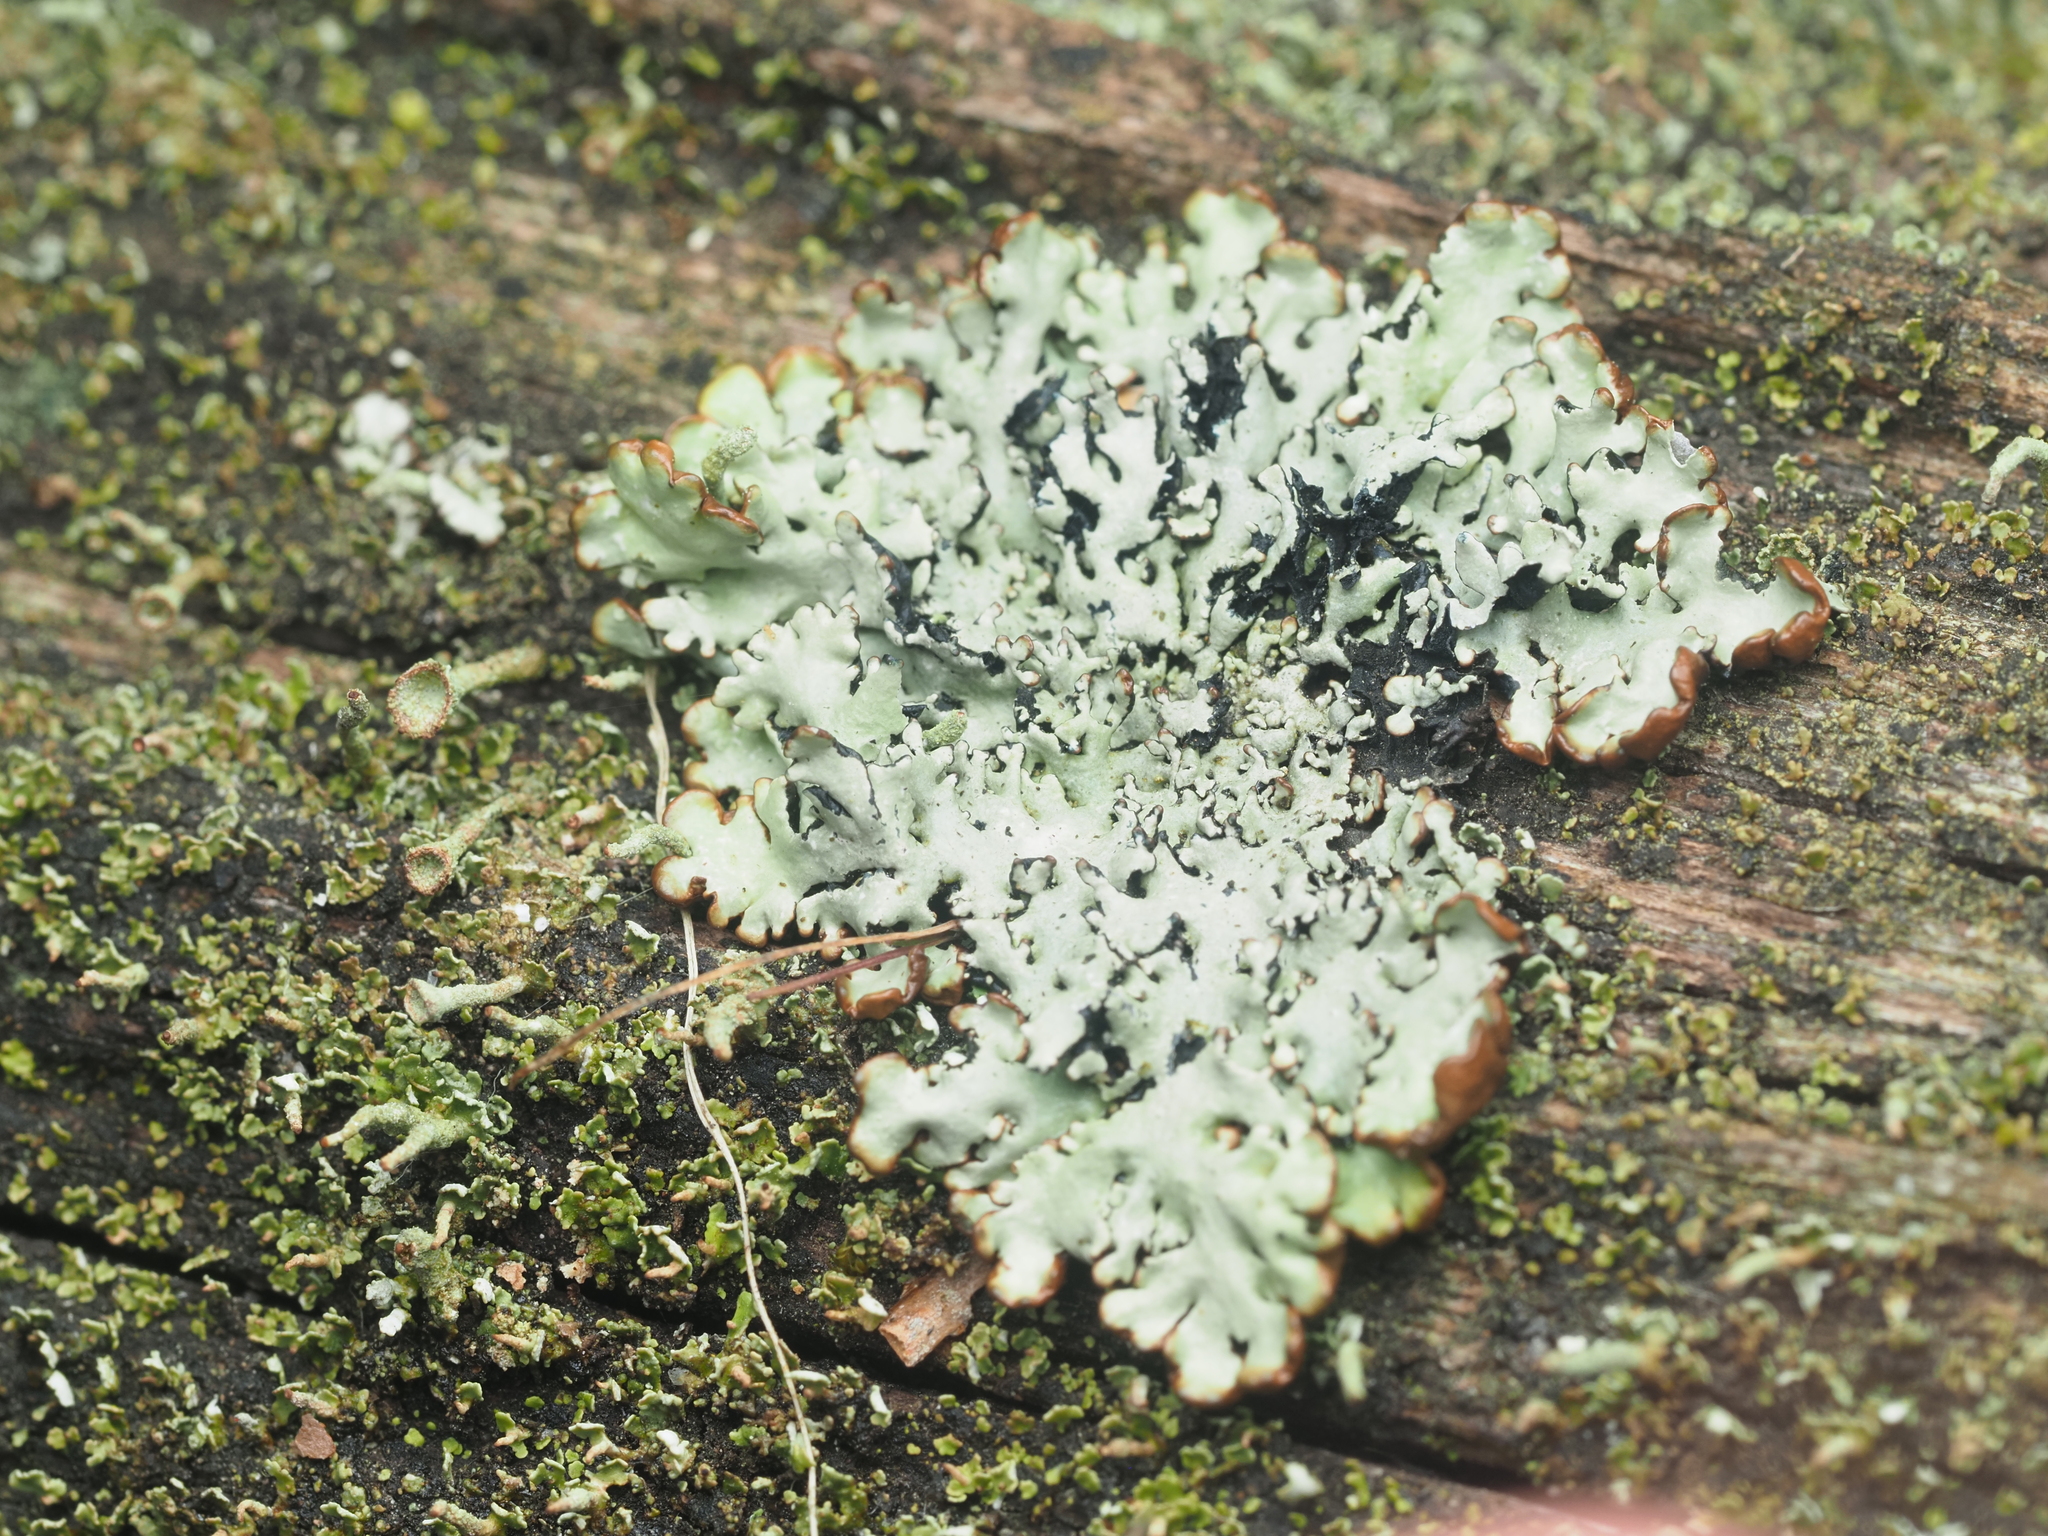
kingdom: Fungi
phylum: Ascomycota
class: Lecanoromycetes
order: Lecanorales
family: Parmeliaceae
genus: Hypogymnia
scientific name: Hypogymnia physodes
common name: Dark crottle
